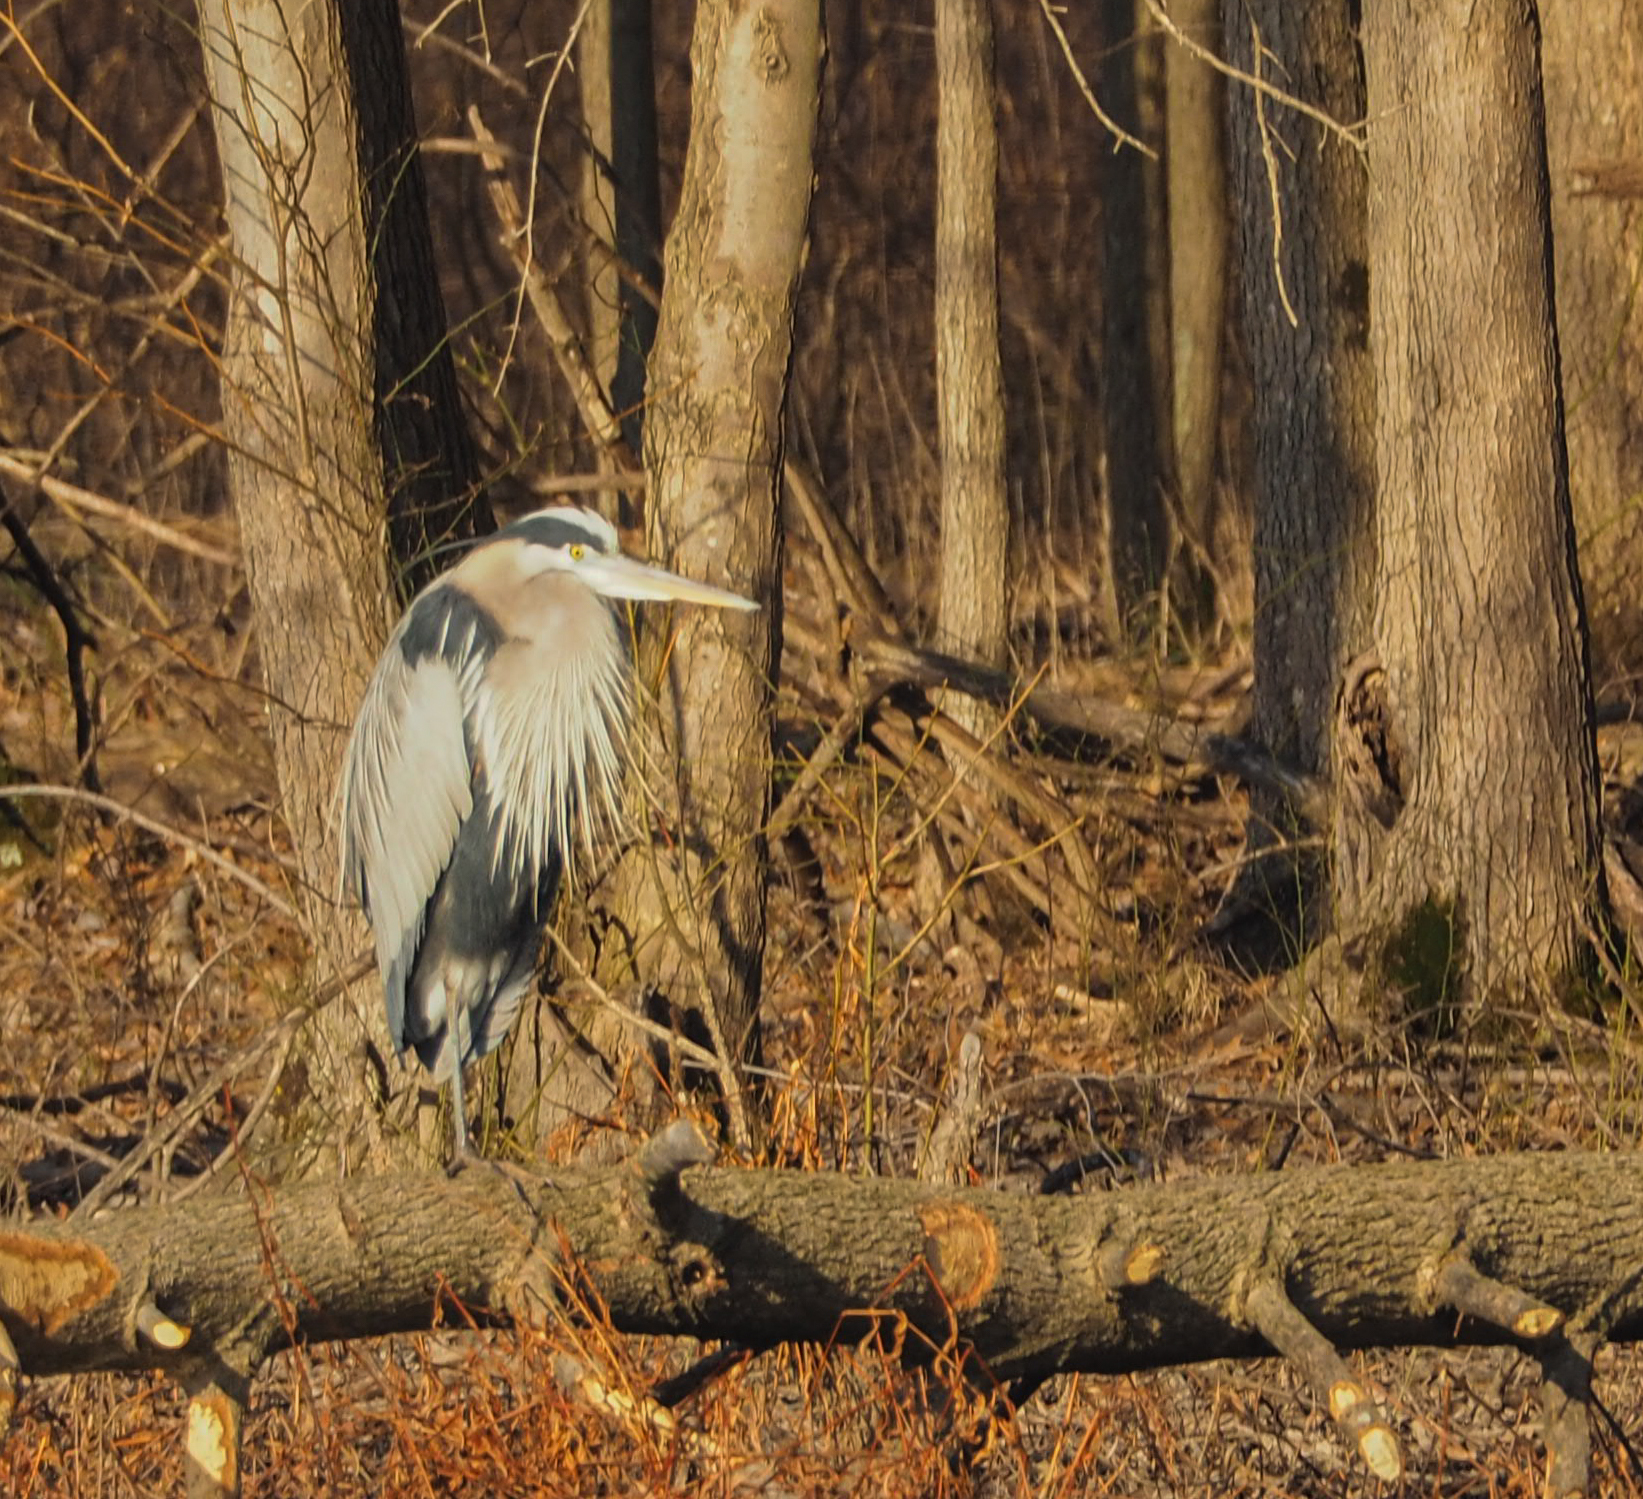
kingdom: Animalia
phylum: Chordata
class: Aves
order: Pelecaniformes
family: Ardeidae
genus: Ardea
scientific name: Ardea herodias
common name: Great blue heron
